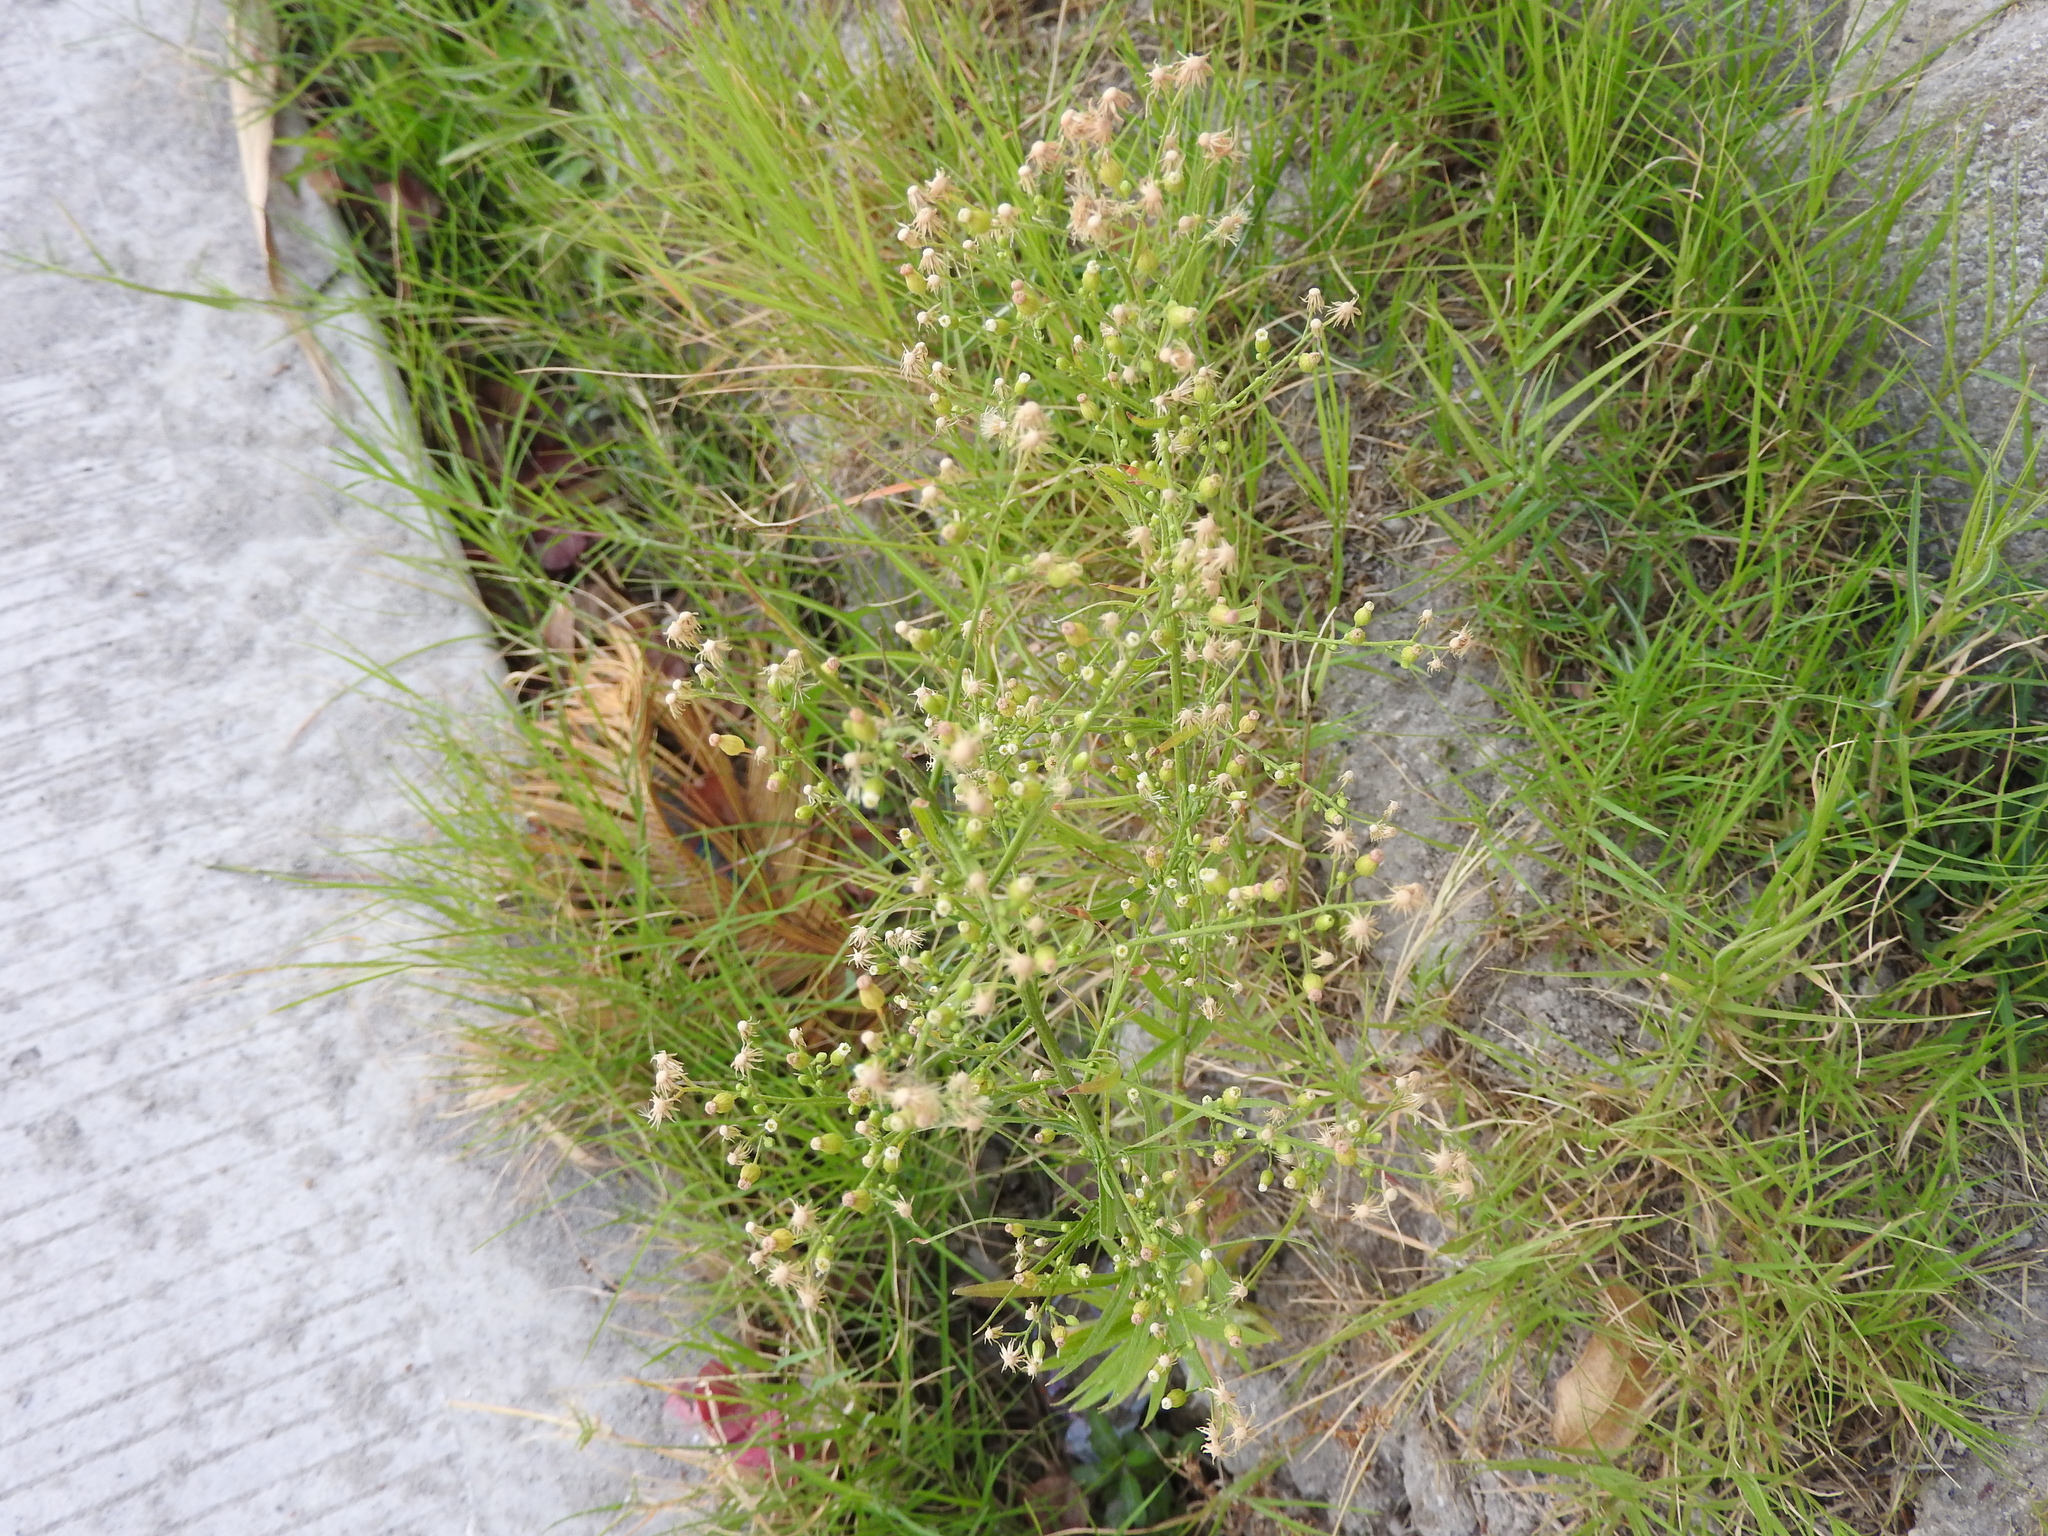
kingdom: Plantae
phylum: Tracheophyta
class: Magnoliopsida
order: Asterales
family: Asteraceae
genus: Erigeron
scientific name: Erigeron canadensis
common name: Canadian fleabane
